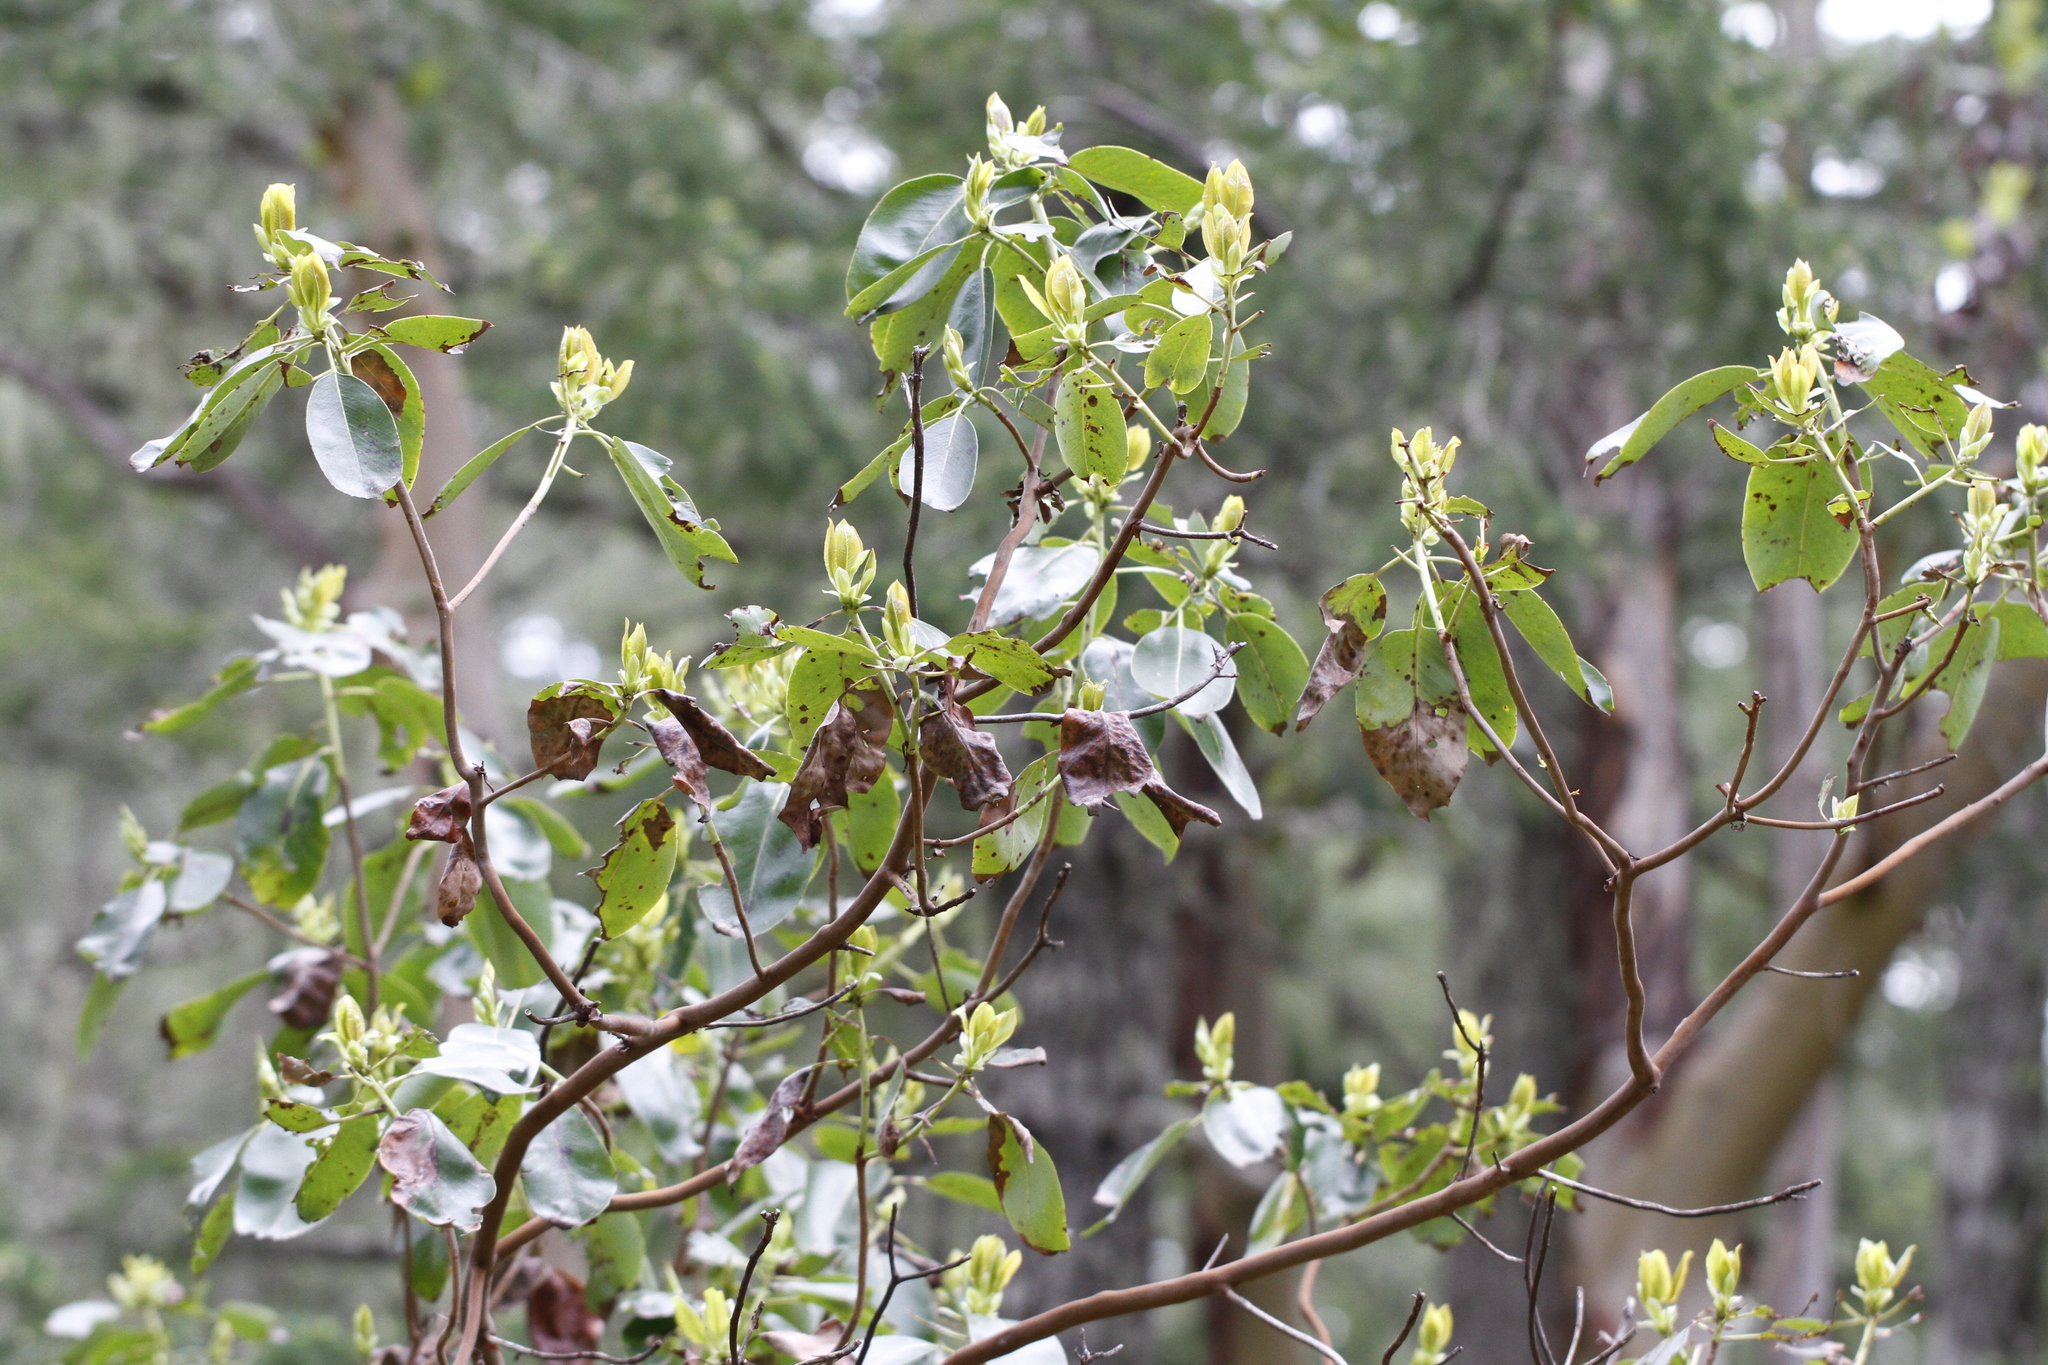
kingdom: Plantae
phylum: Tracheophyta
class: Magnoliopsida
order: Ericales
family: Ericaceae
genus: Arbutus
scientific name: Arbutus menziesii
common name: Pacific madrone
